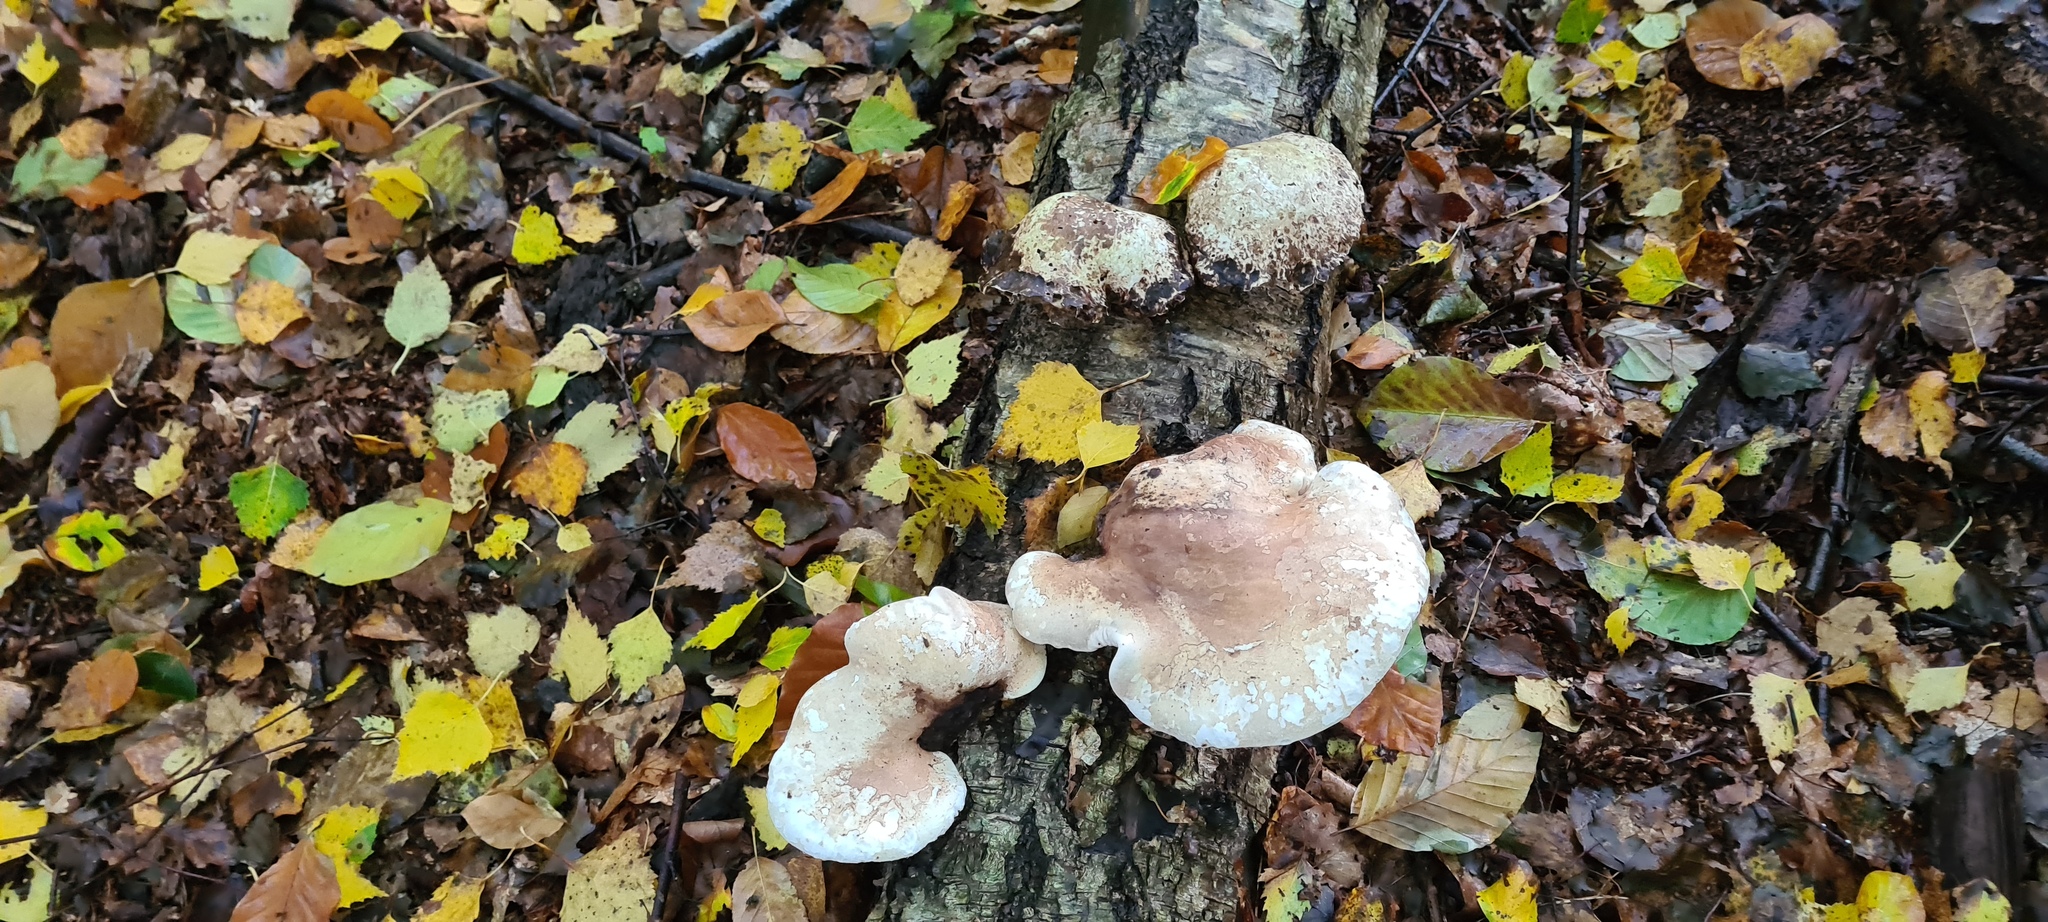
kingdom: Fungi
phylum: Basidiomycota
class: Agaricomycetes
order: Polyporales
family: Fomitopsidaceae
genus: Fomitopsis
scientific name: Fomitopsis betulina
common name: Birch polypore
